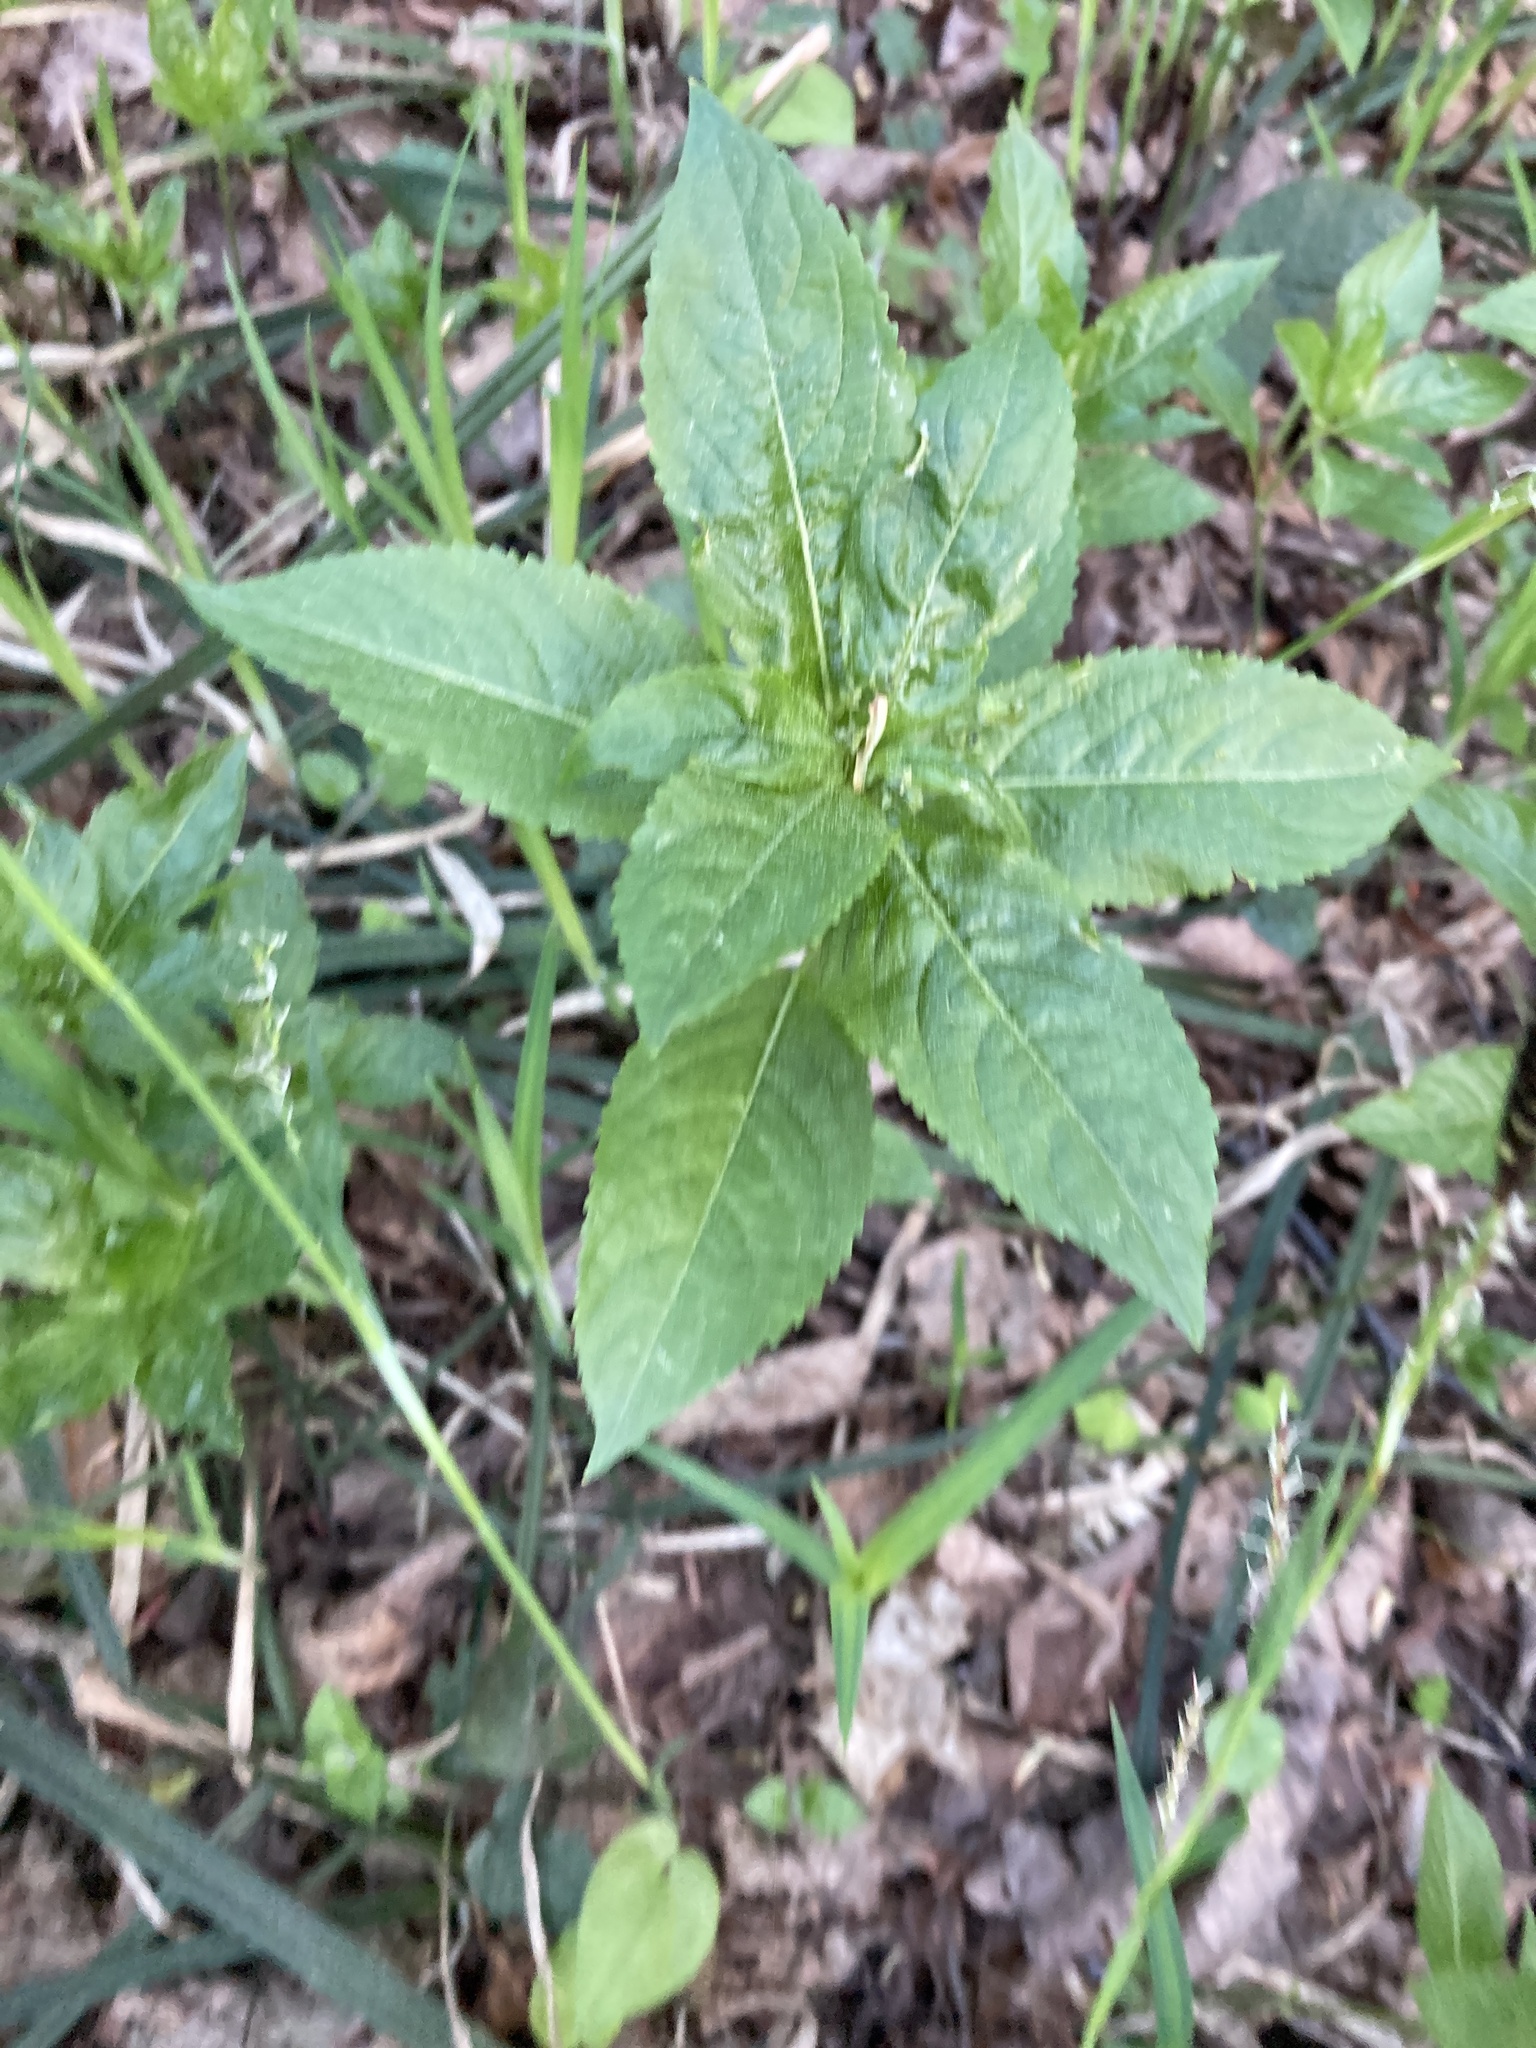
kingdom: Plantae
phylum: Tracheophyta
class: Magnoliopsida
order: Malpighiales
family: Euphorbiaceae
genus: Mercurialis
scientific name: Mercurialis perennis
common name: Dog mercury
